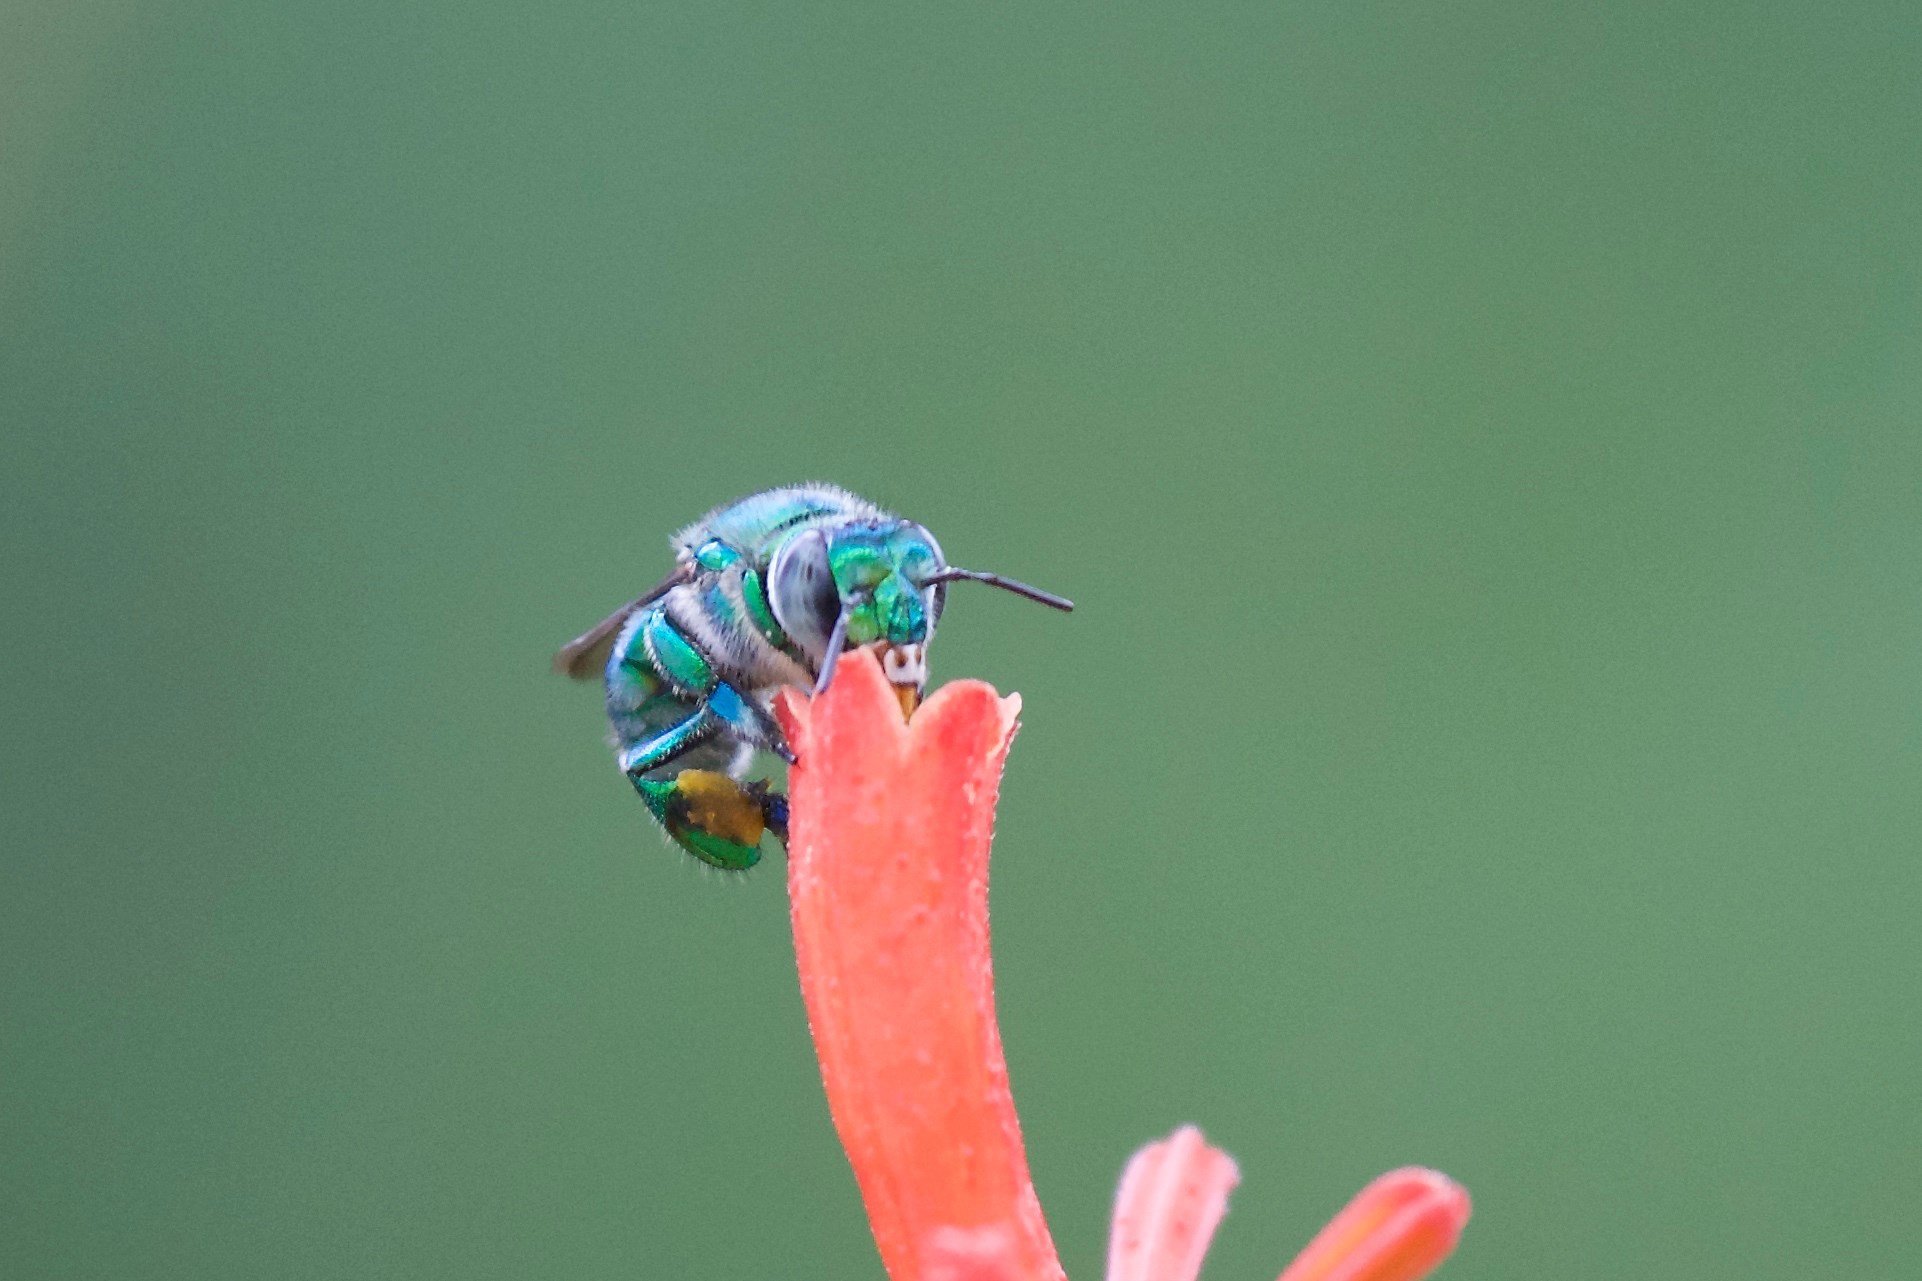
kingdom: Animalia
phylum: Arthropoda
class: Insecta
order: Hymenoptera
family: Apidae
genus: Euglossa
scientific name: Euglossa dilemma
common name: Green orchid bee
